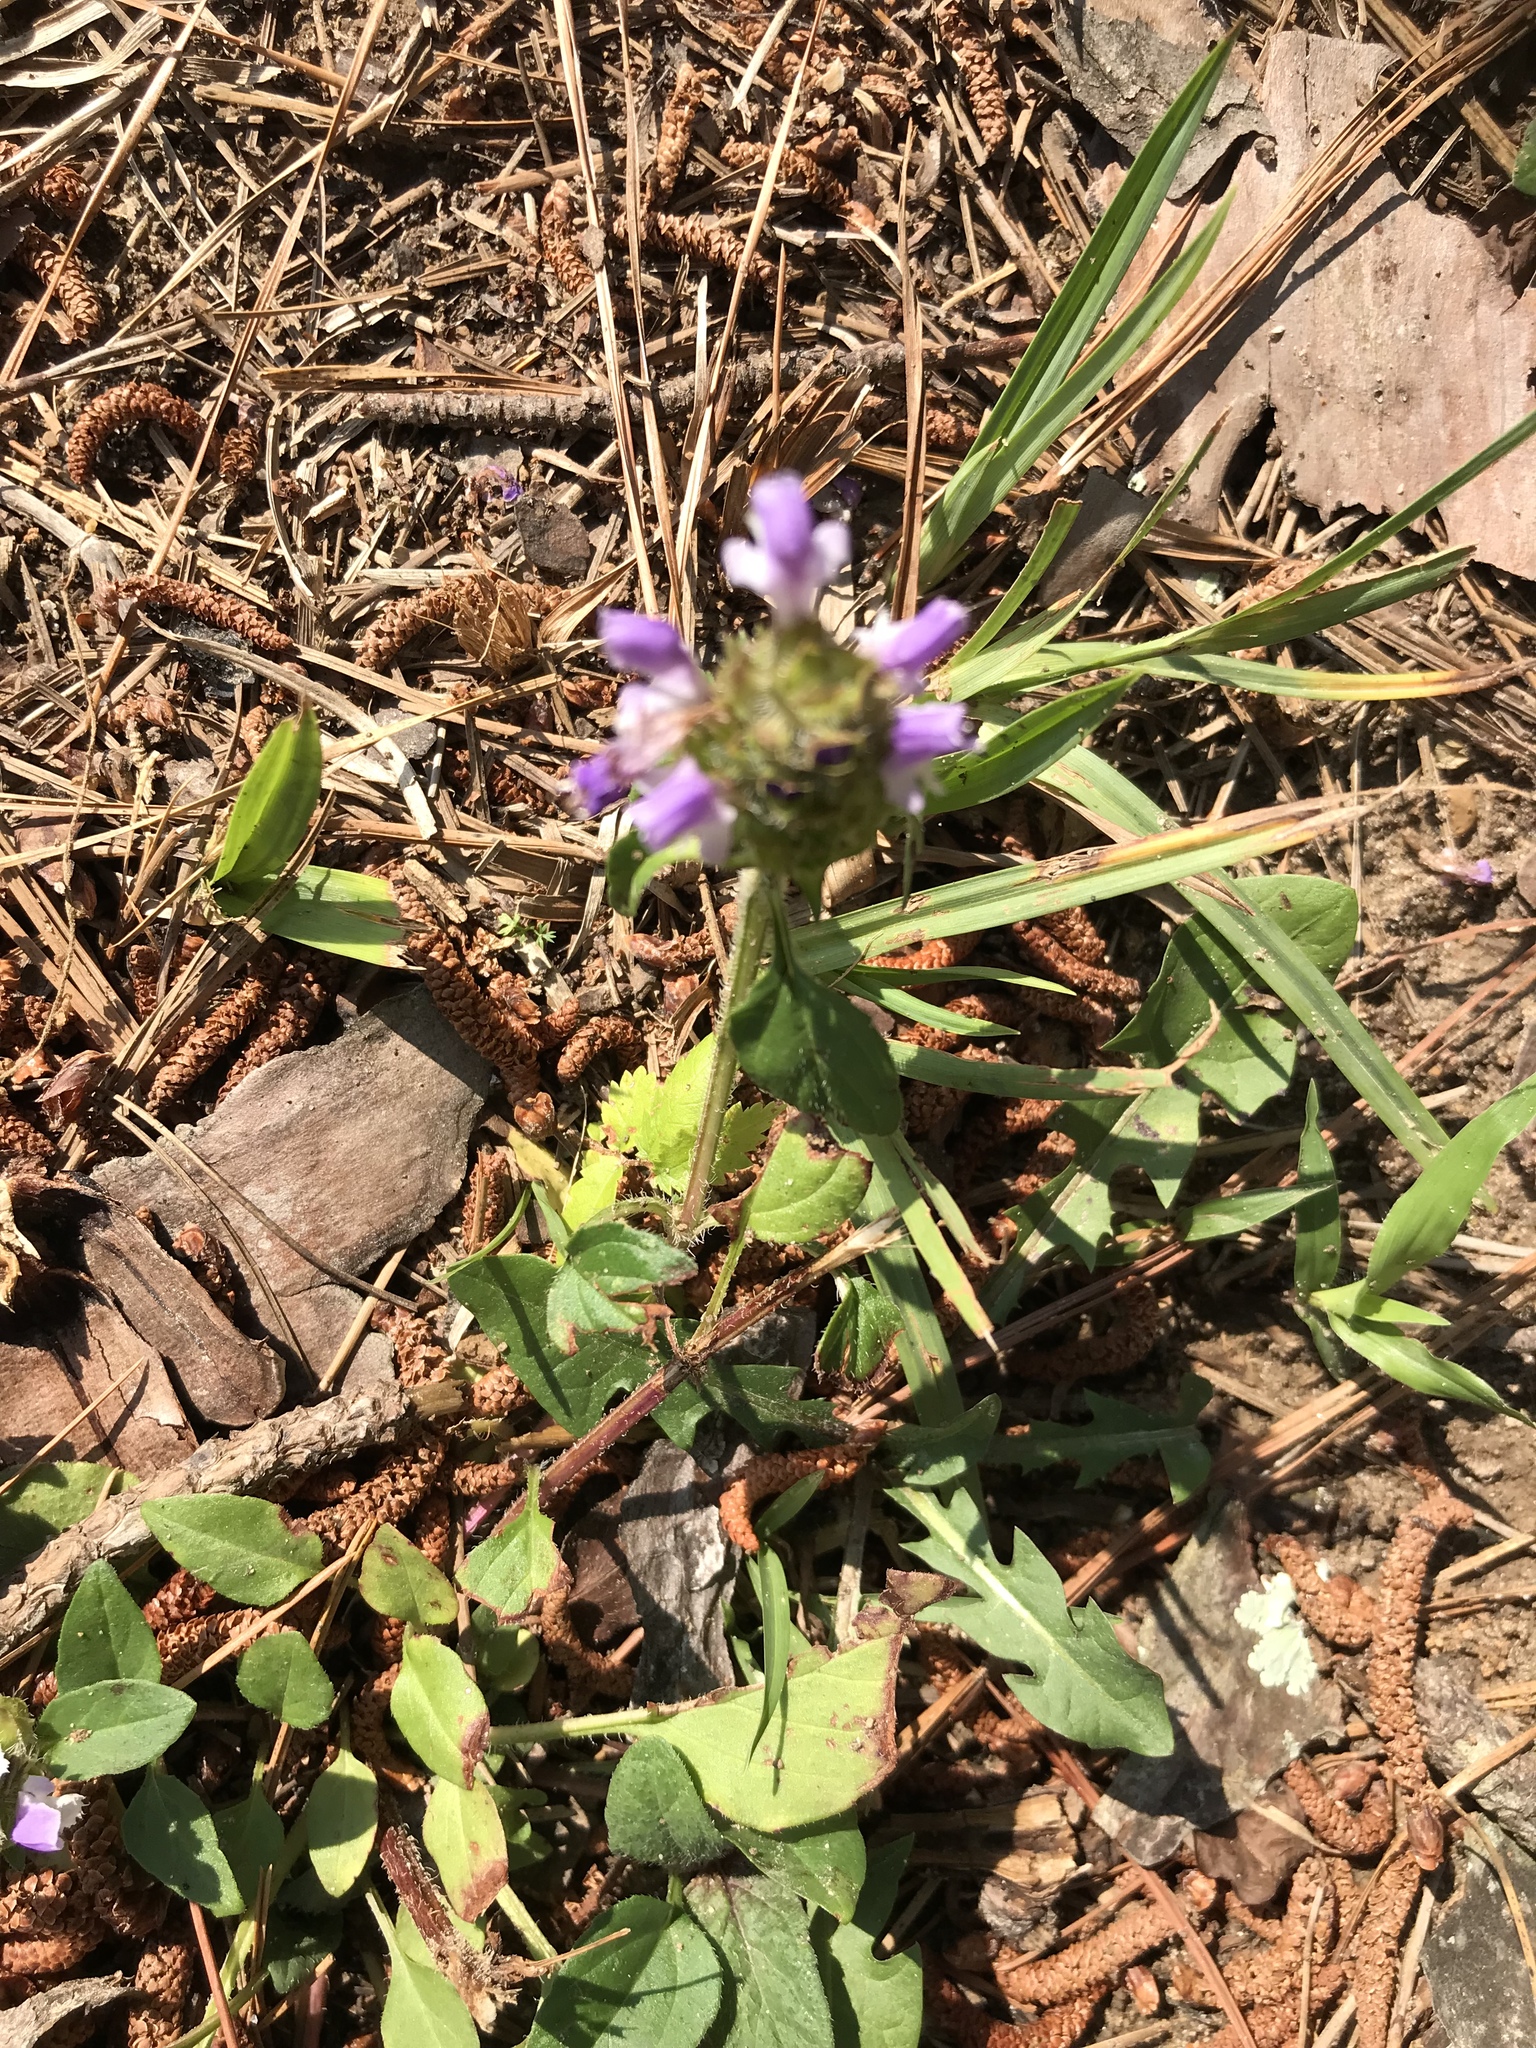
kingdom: Plantae
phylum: Tracheophyta
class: Magnoliopsida
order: Lamiales
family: Lamiaceae
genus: Prunella
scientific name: Prunella vulgaris
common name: Heal-all
